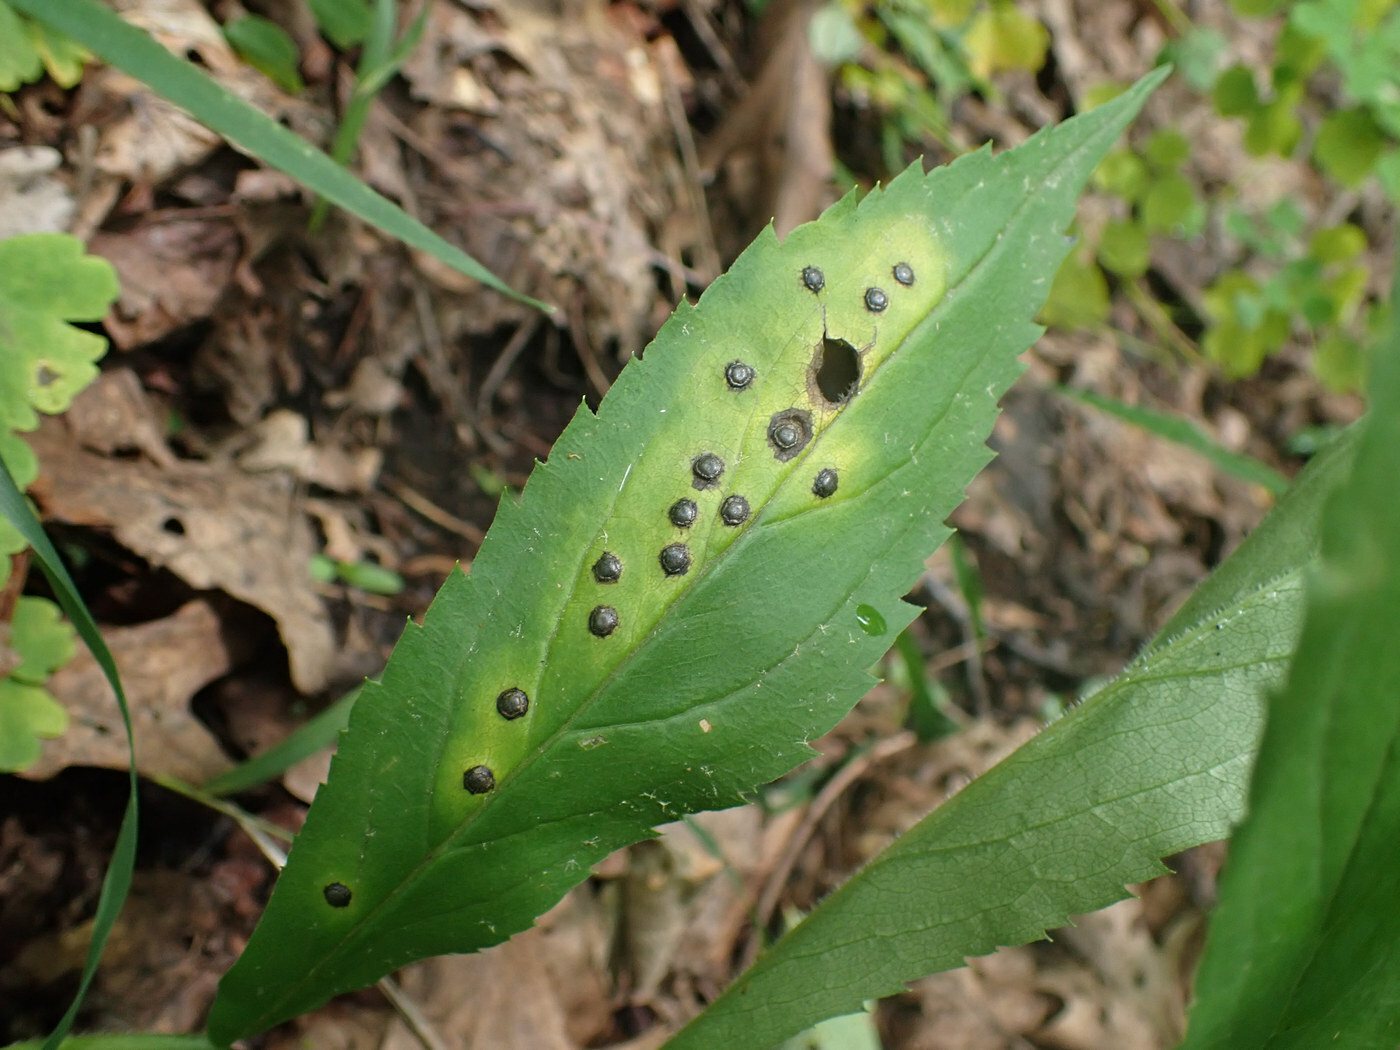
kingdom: Animalia
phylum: Arthropoda
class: Insecta
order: Diptera
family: Cecidomyiidae
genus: Asteromyia
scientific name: Asteromyia carbonifera
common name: Carbonifera goldenrod gall midge
